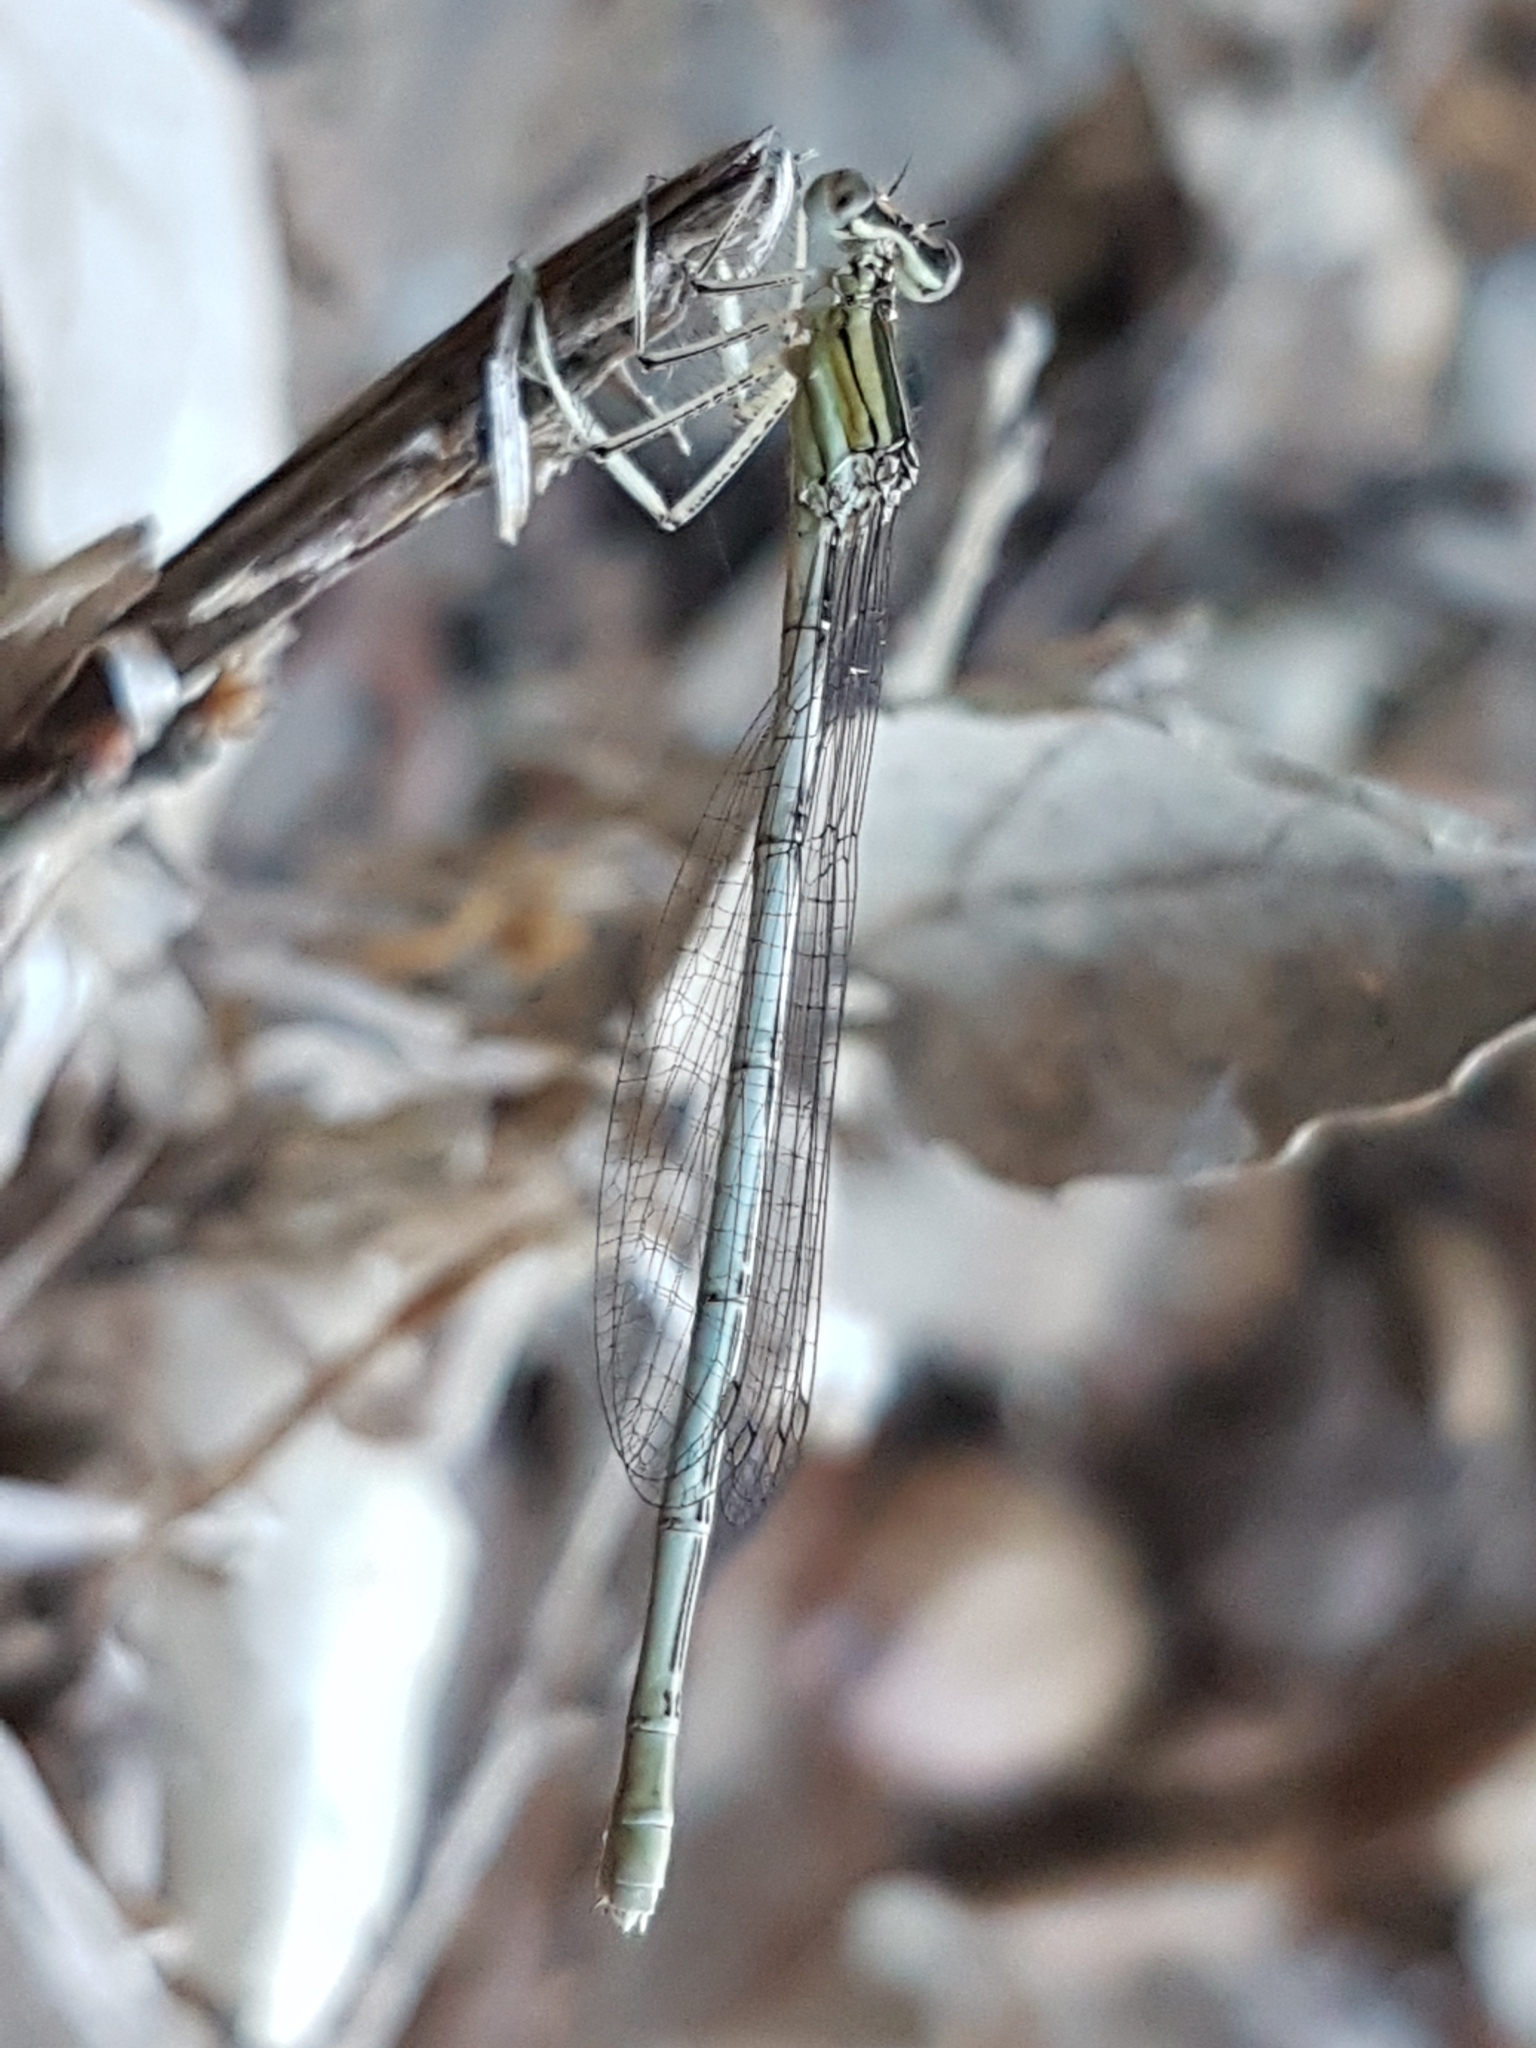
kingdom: Animalia
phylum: Arthropoda
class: Insecta
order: Odonata
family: Platycnemididae
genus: Platycnemis
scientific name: Platycnemis latipes
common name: White featherleg
